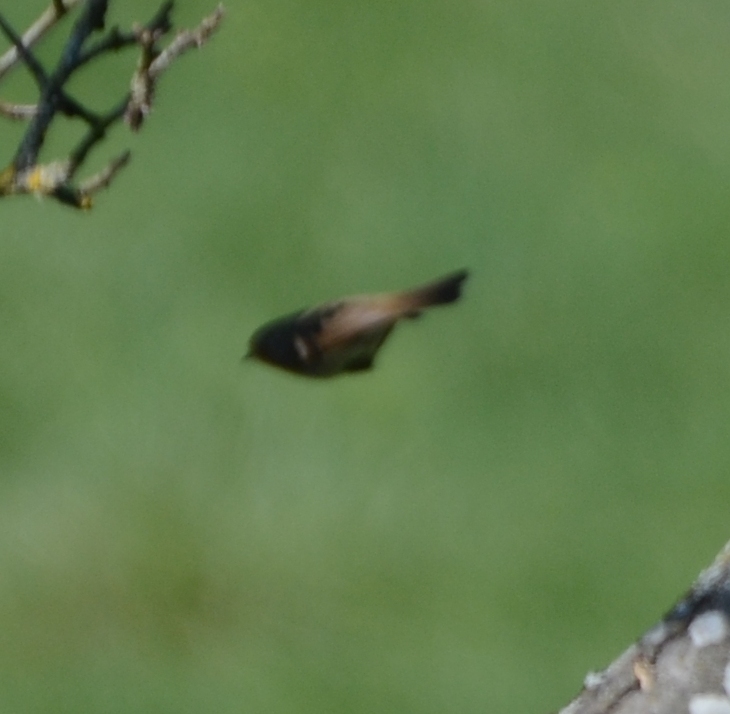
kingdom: Animalia
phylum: Chordata
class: Aves
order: Passeriformes
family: Muscicapidae
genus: Saxicola
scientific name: Saxicola rubicola
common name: European stonechat
